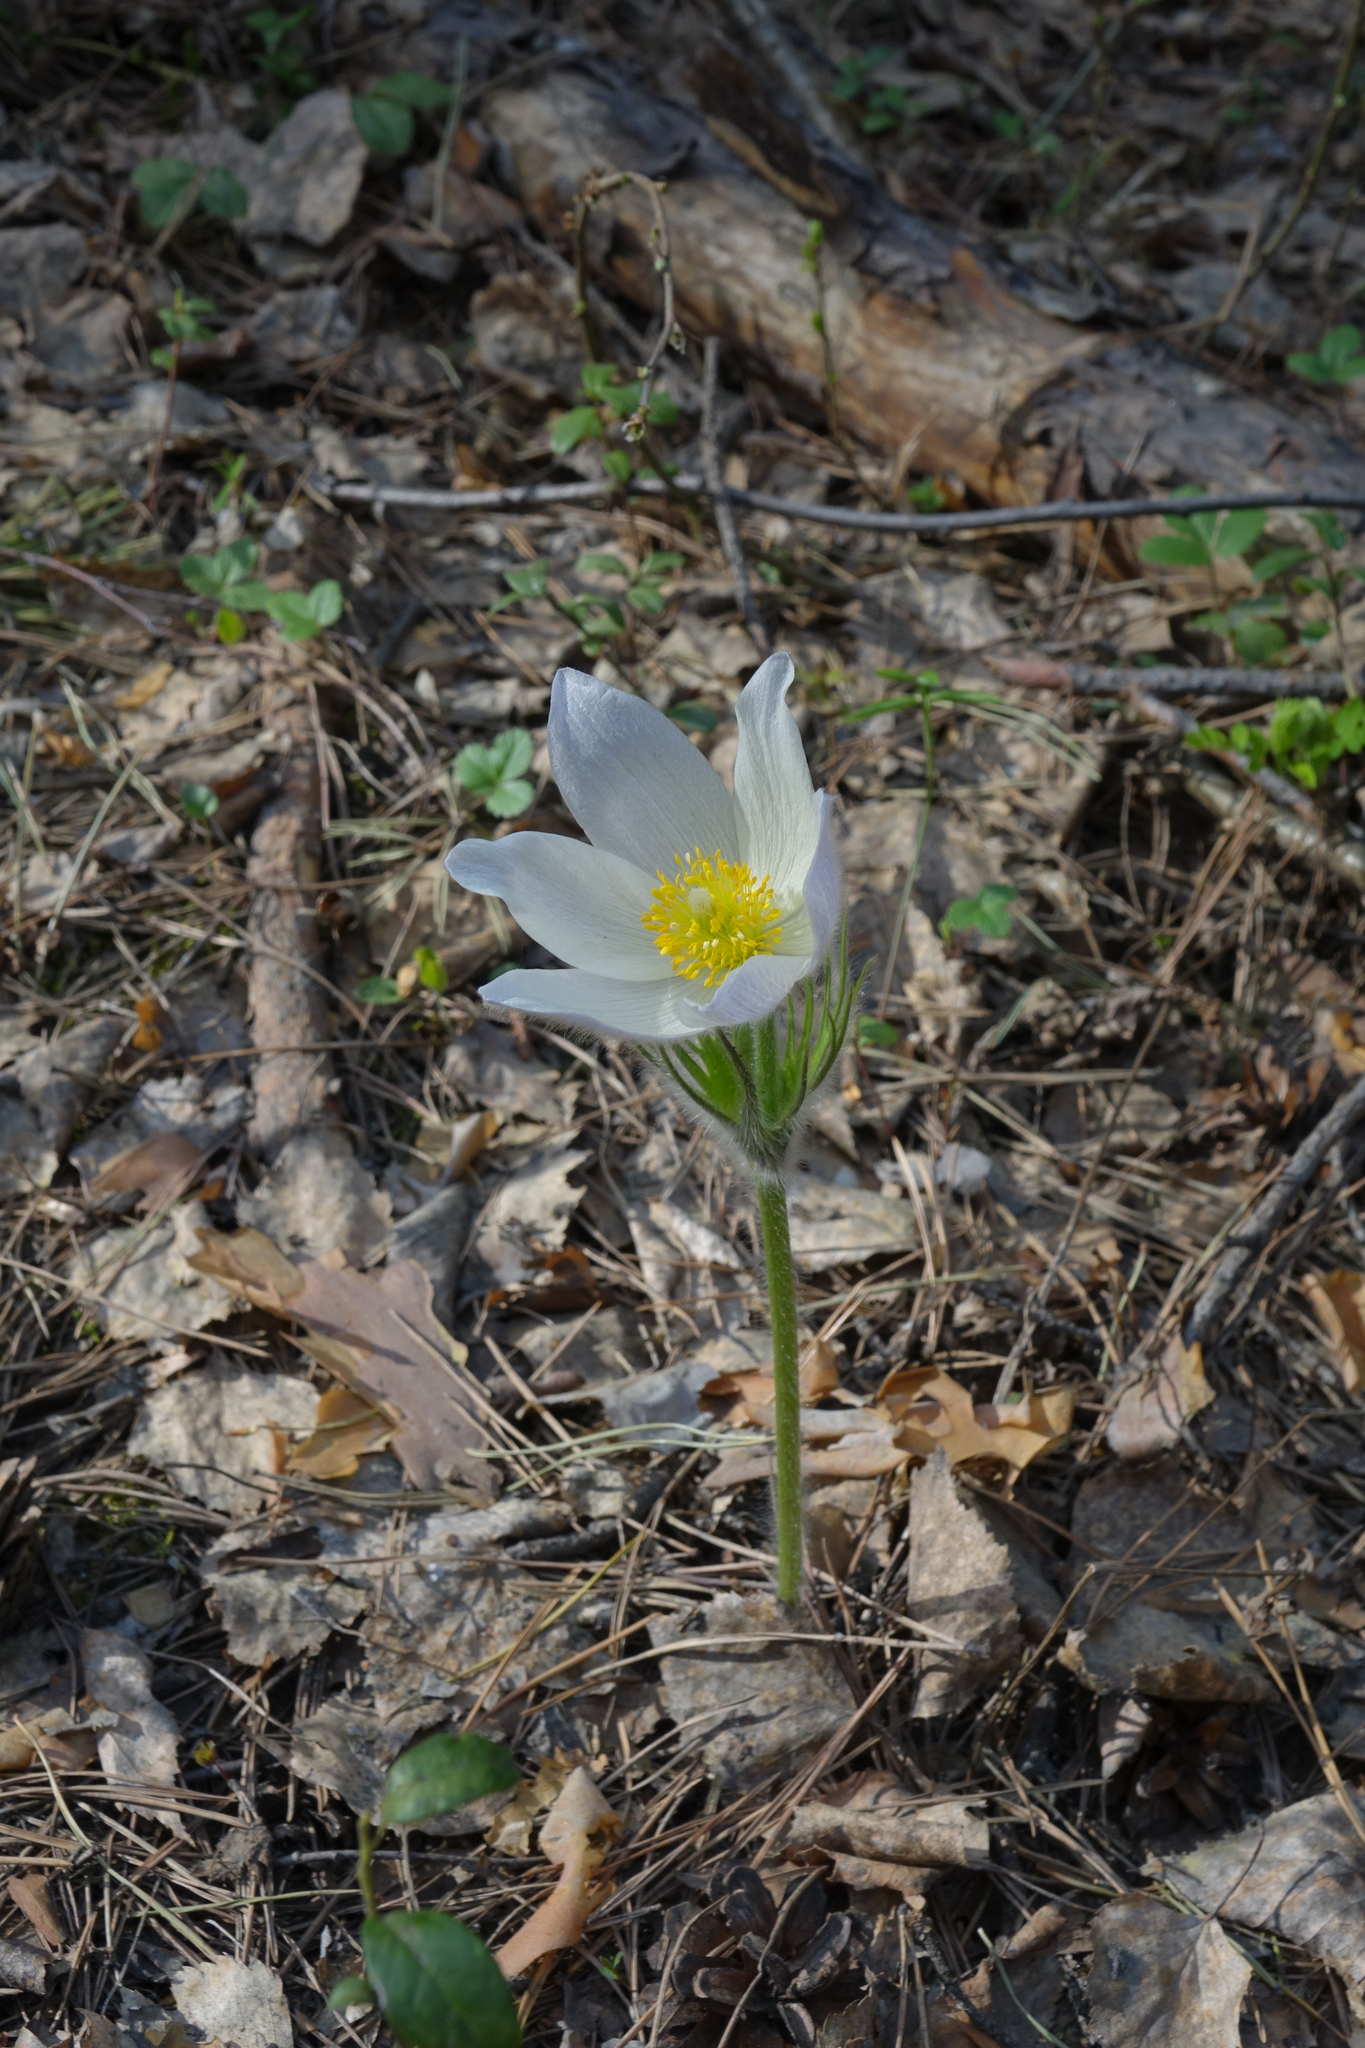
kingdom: Plantae
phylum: Tracheophyta
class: Magnoliopsida
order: Ranunculales
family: Ranunculaceae
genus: Pulsatilla
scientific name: Pulsatilla patens
